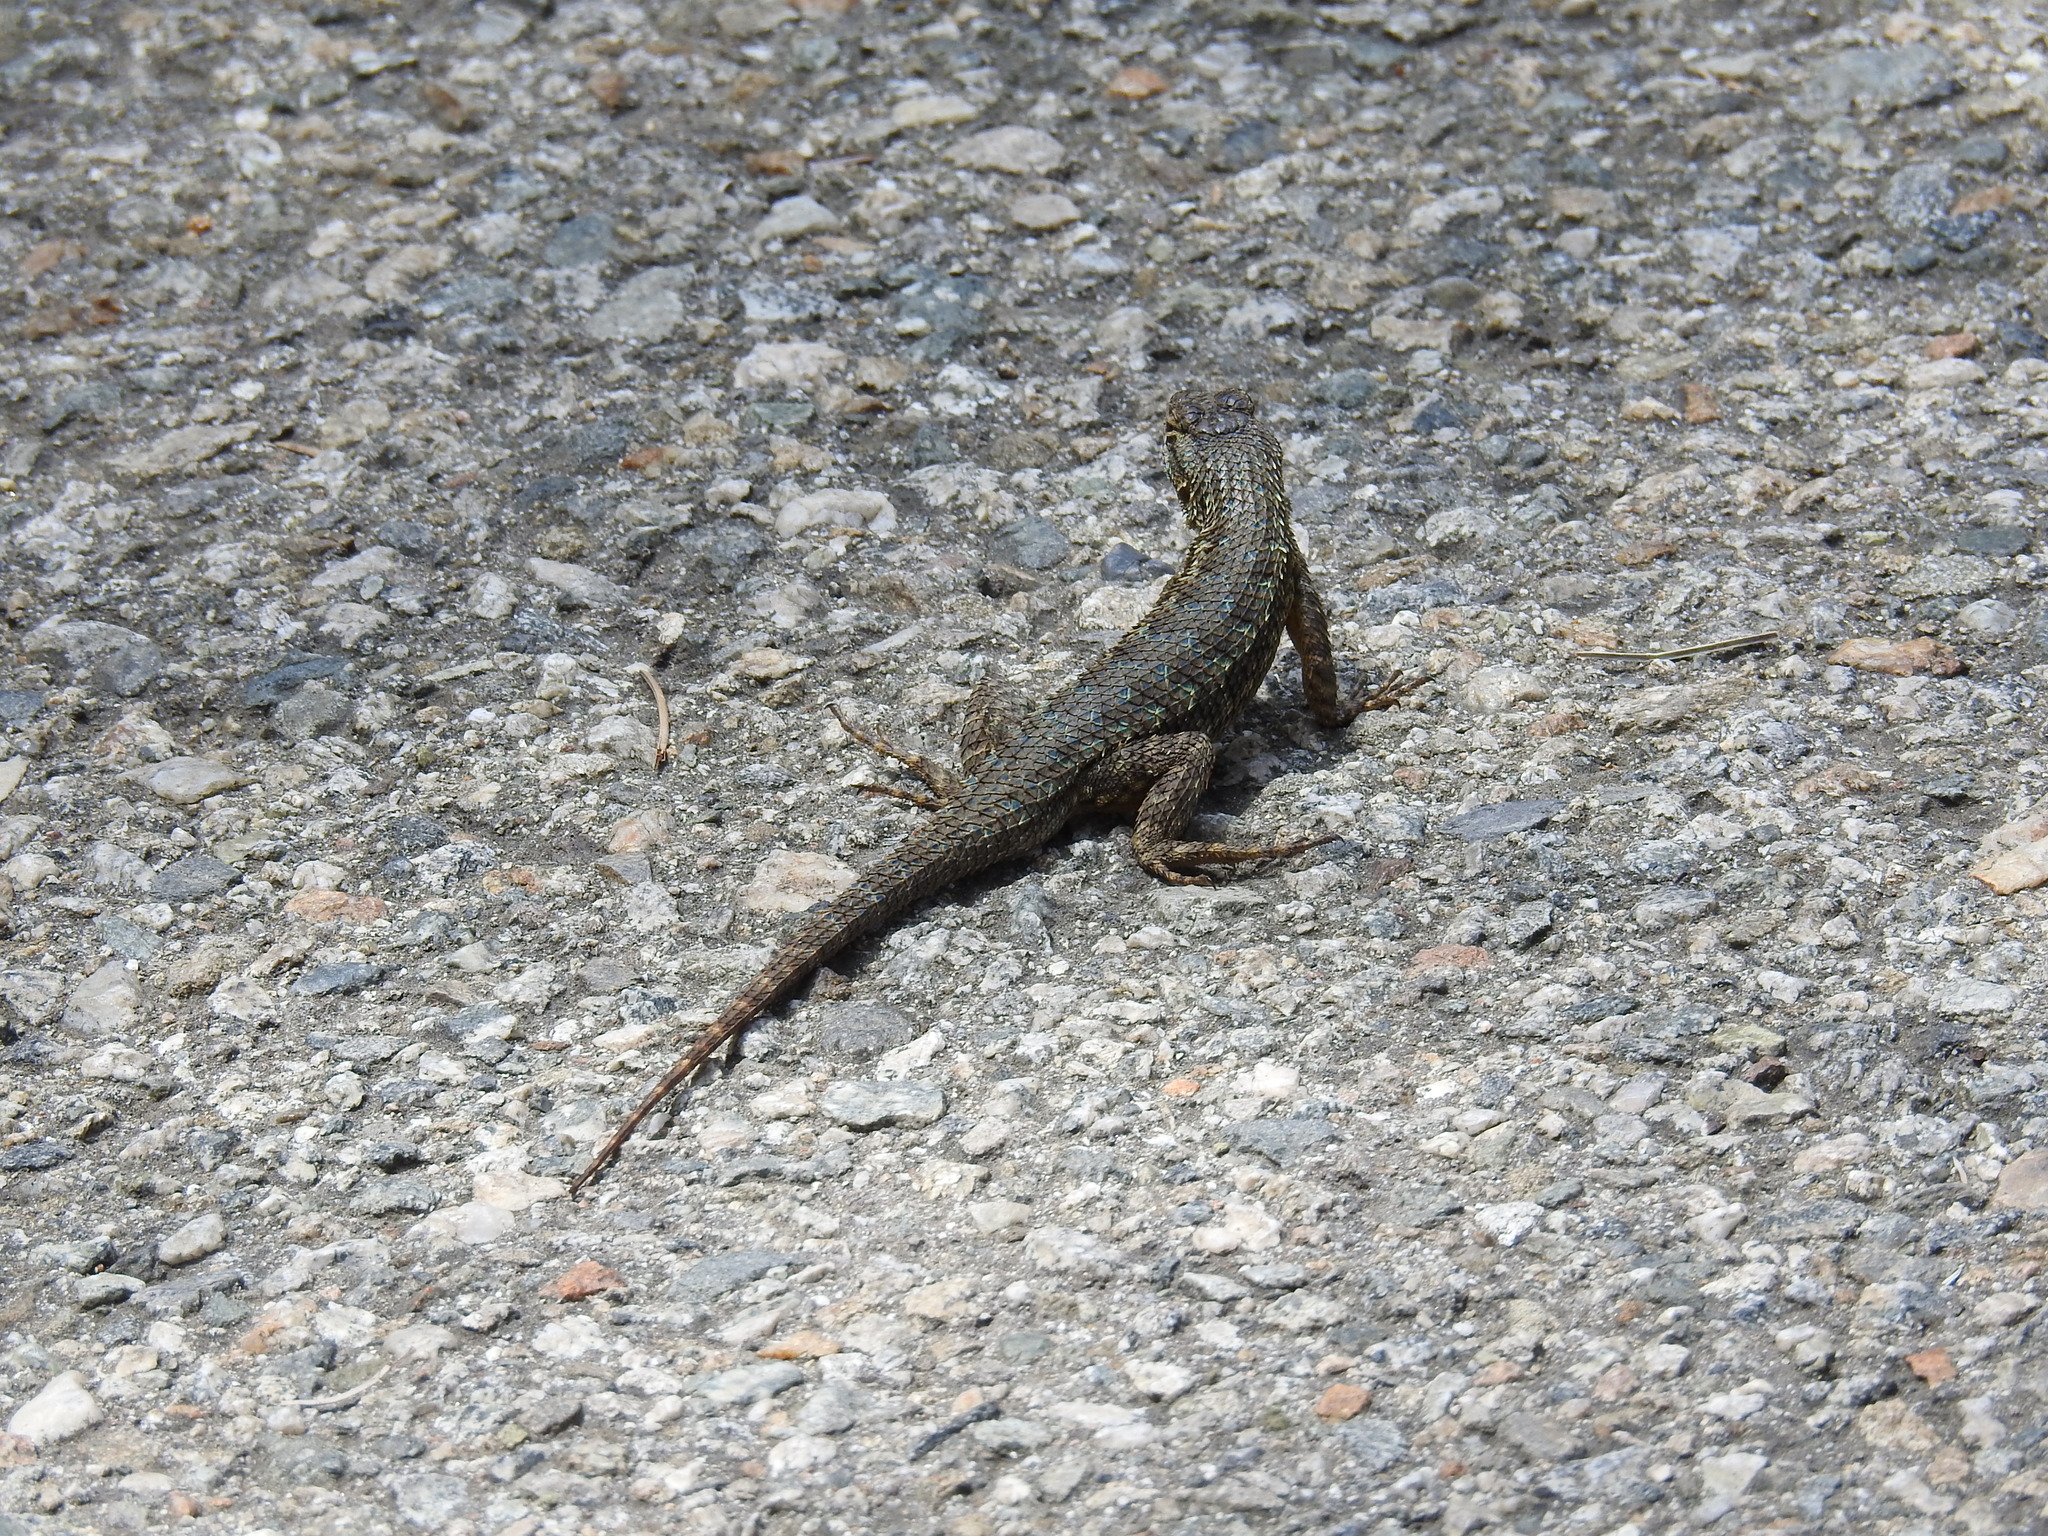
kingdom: Animalia
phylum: Chordata
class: Squamata
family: Phrynosomatidae
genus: Sceloporus
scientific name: Sceloporus occidentalis
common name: Western fence lizard
